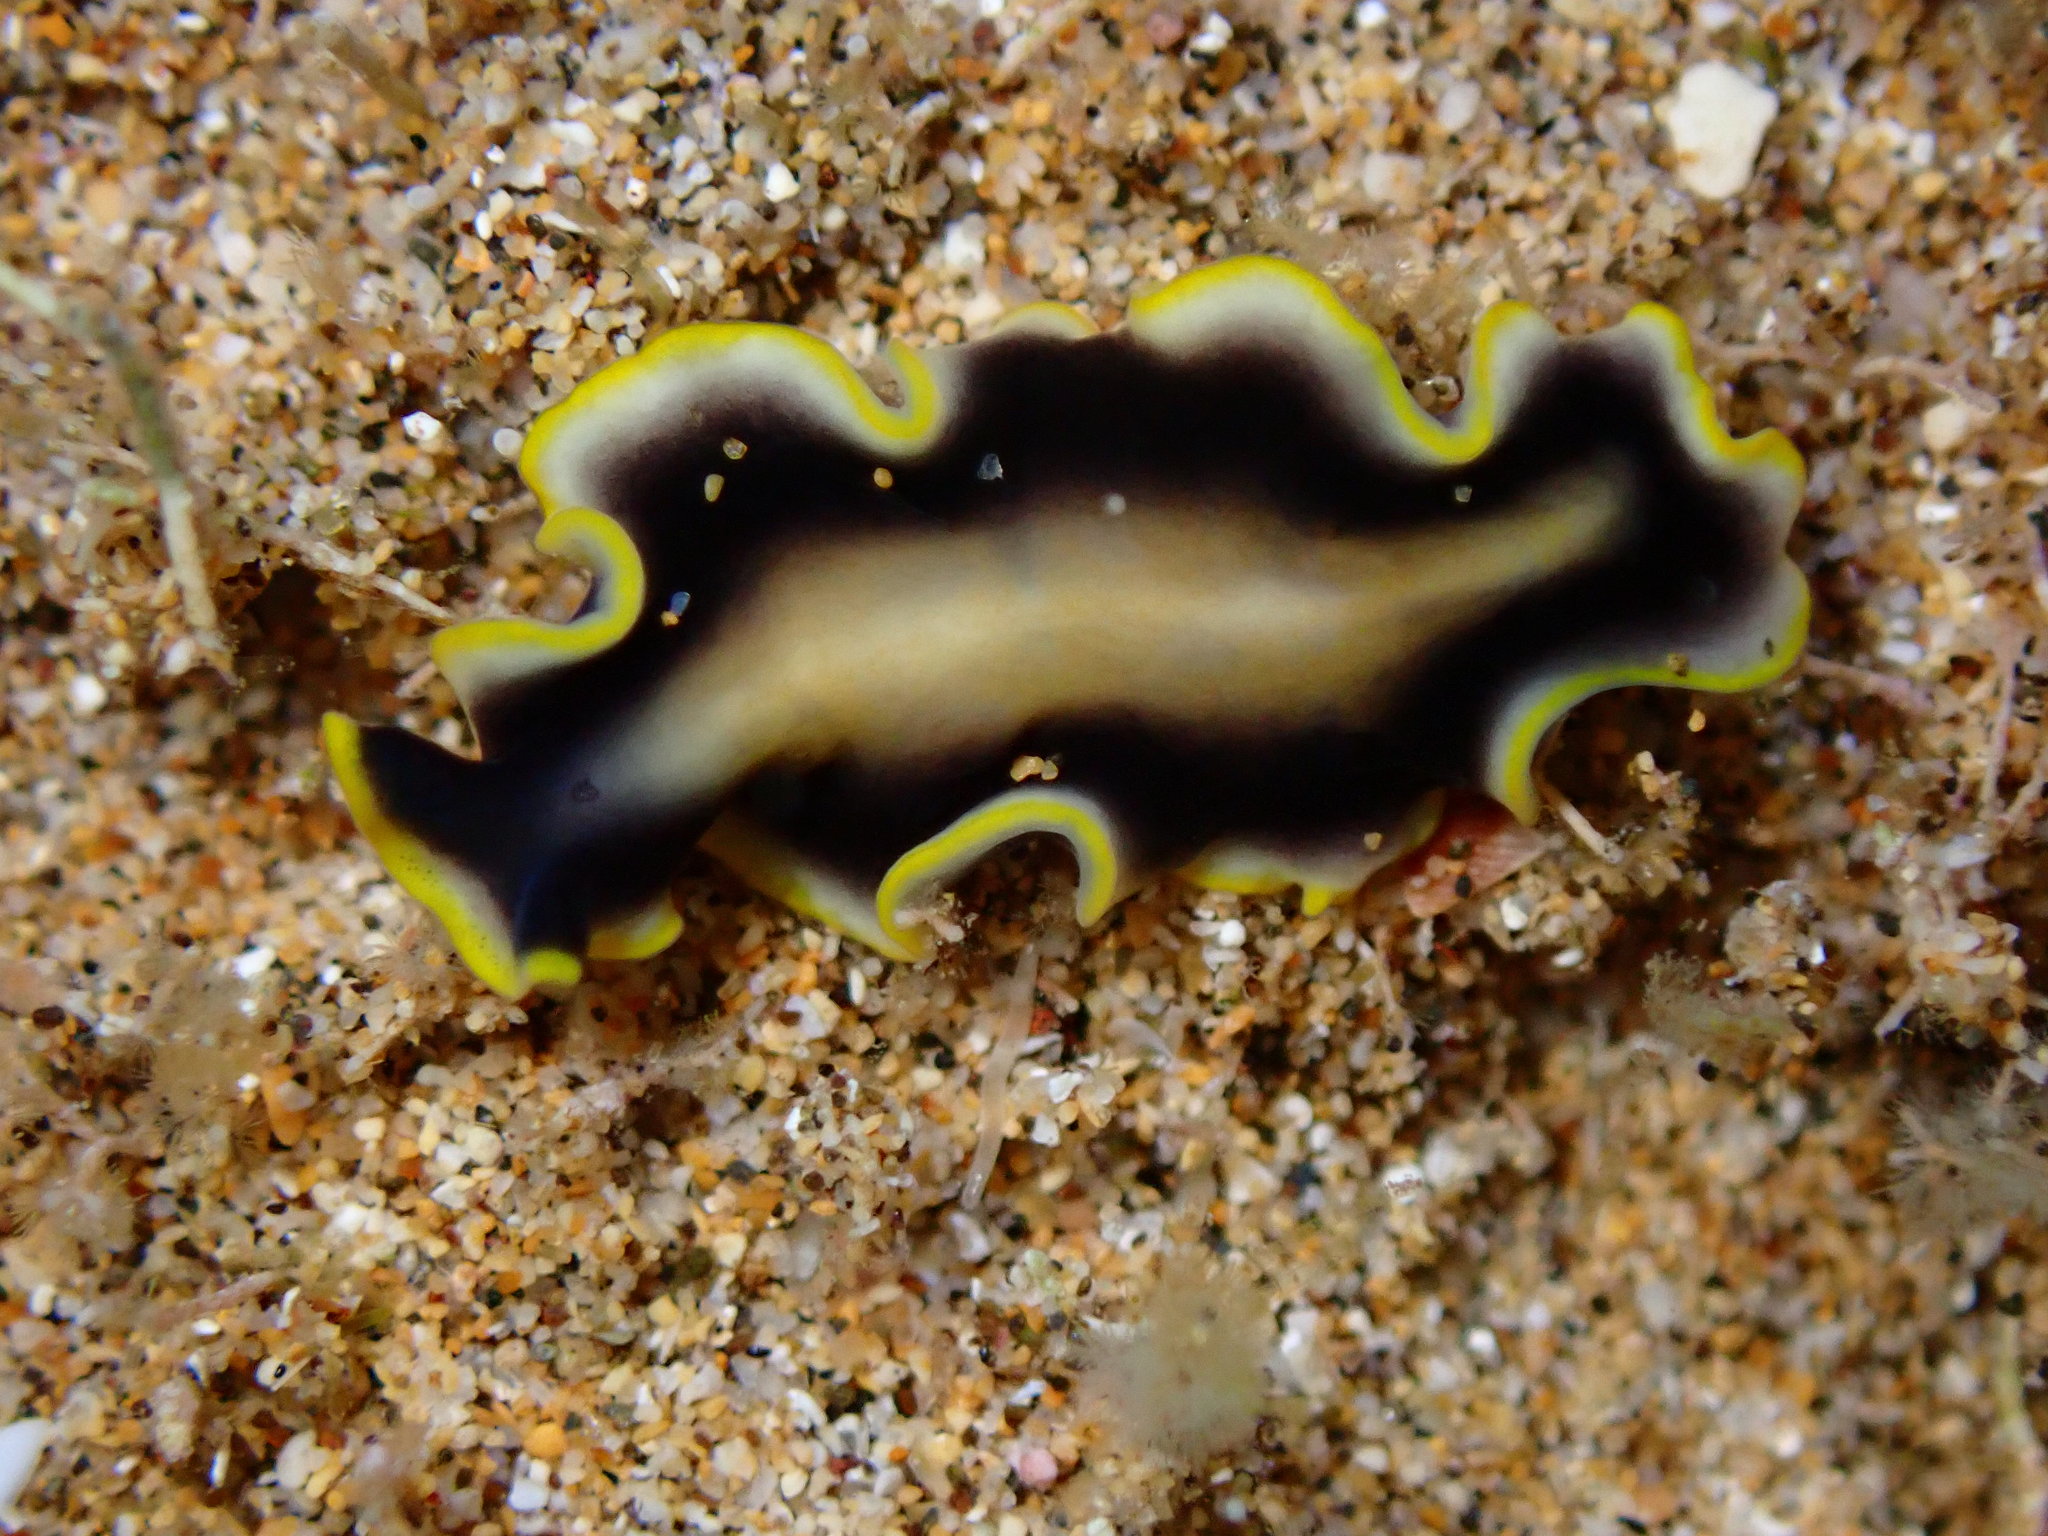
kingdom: Animalia
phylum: Platyhelminthes
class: Turbellaria
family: Pseudocerotidae
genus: Pseudoceros
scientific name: Pseudoceros paralaticlavus
